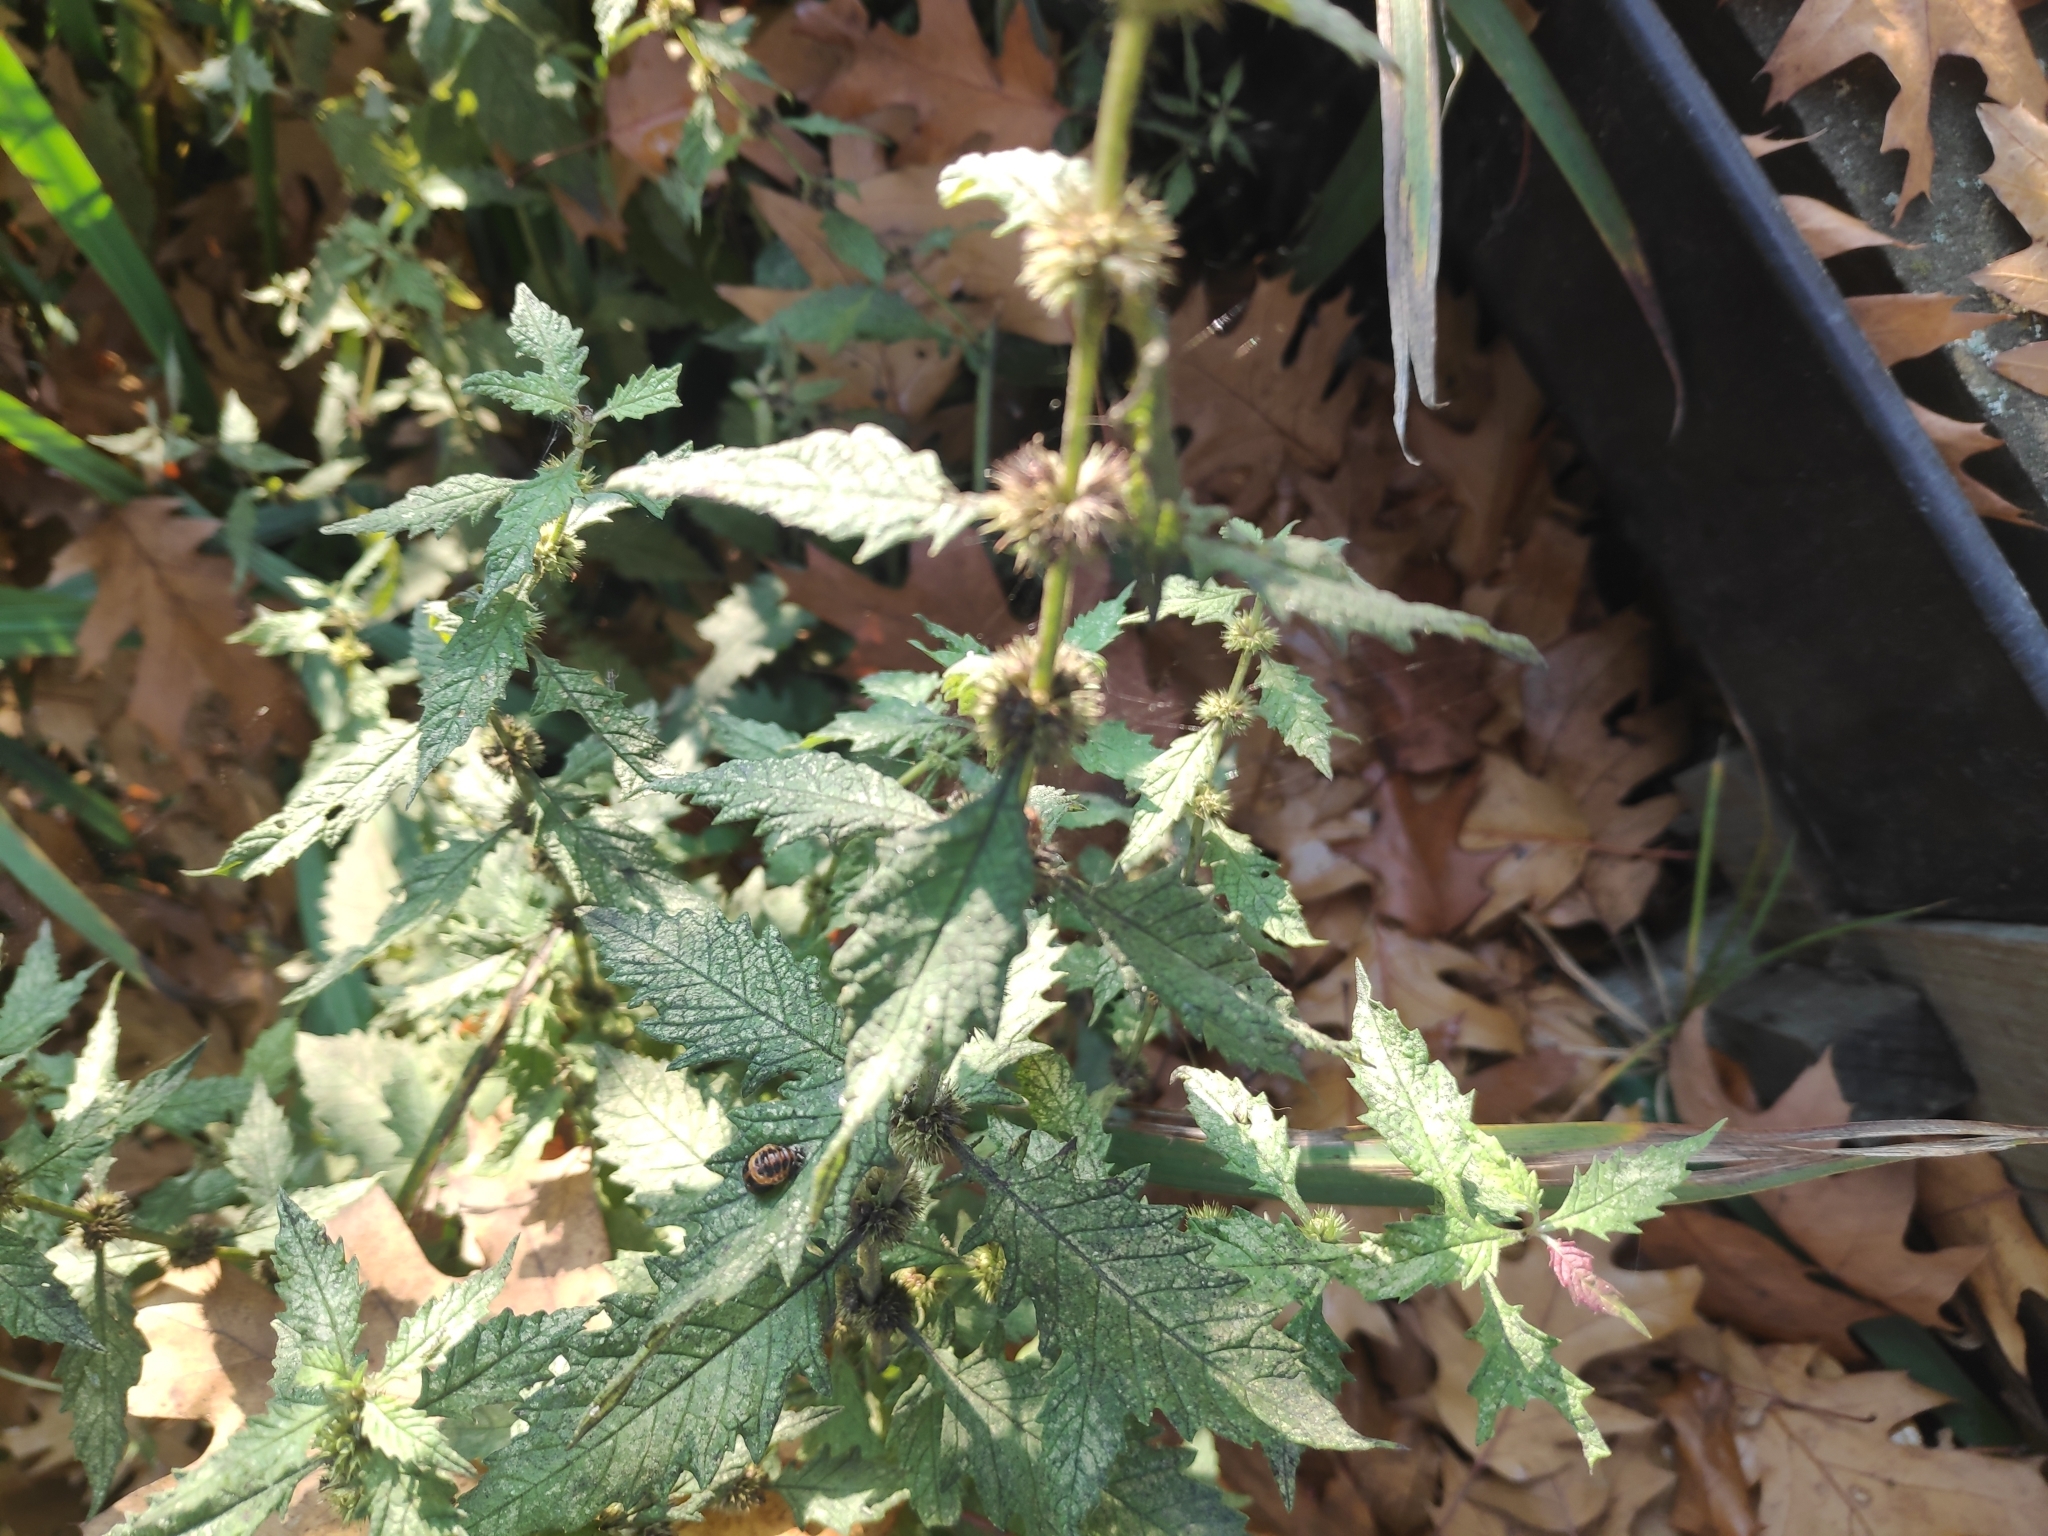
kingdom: Plantae
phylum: Tracheophyta
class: Magnoliopsida
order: Lamiales
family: Lamiaceae
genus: Lycopus
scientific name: Lycopus europaeus
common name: European bugleweed
